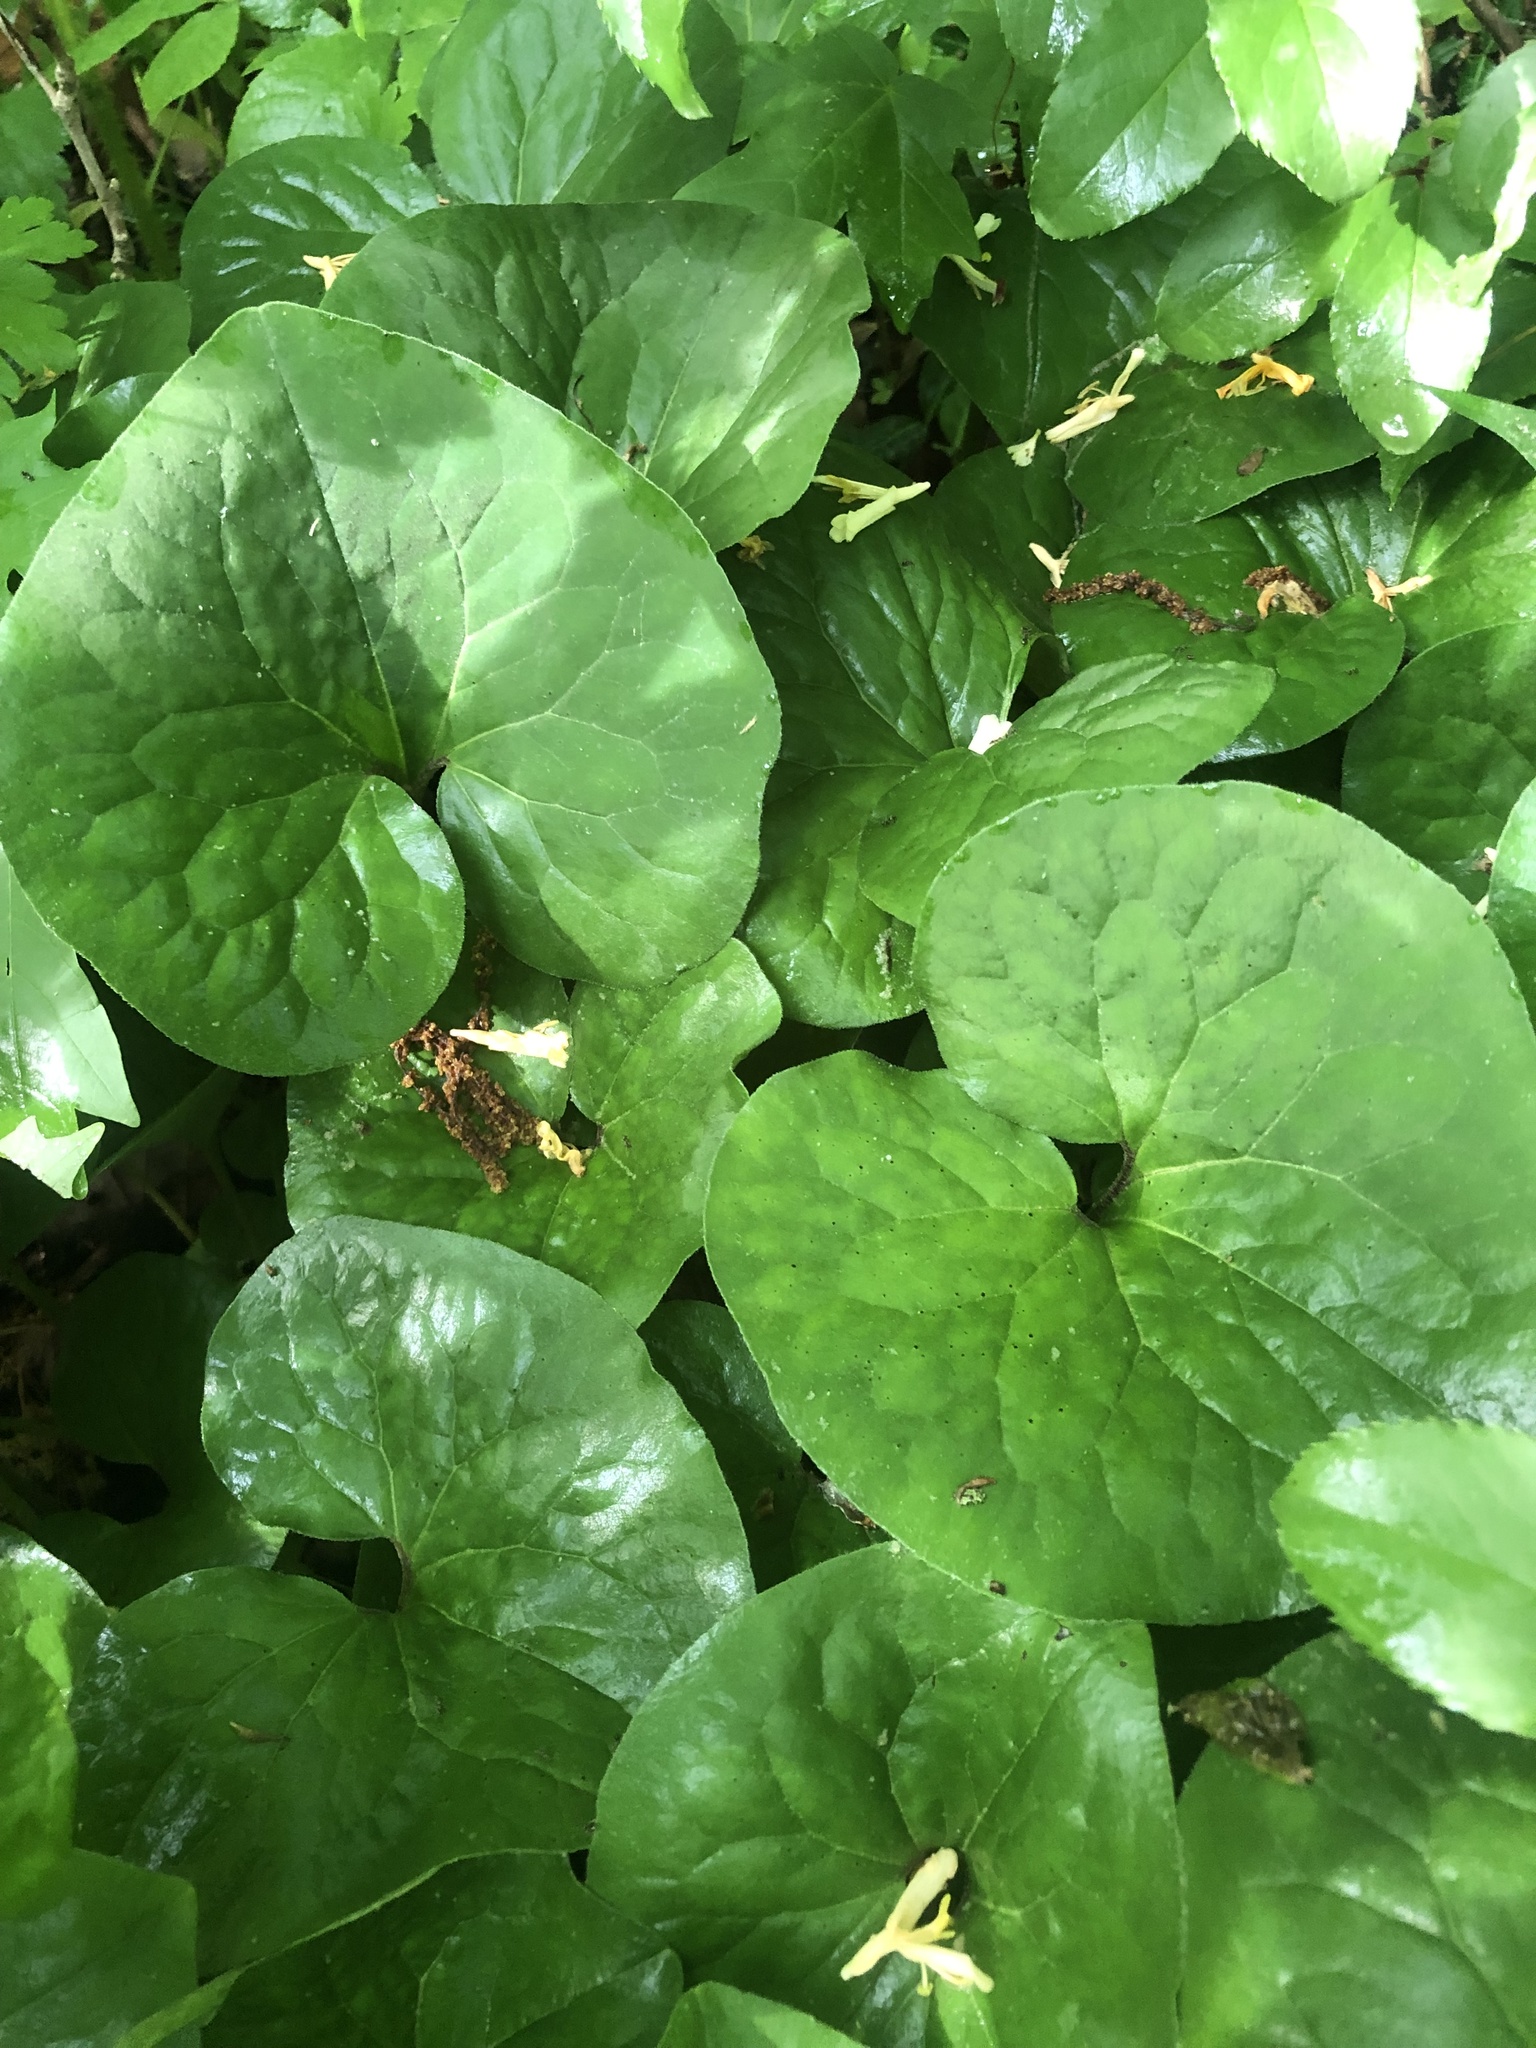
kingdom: Plantae
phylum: Tracheophyta
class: Magnoliopsida
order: Piperales
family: Aristolochiaceae
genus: Asarum
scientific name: Asarum canadense
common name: Wild ginger
